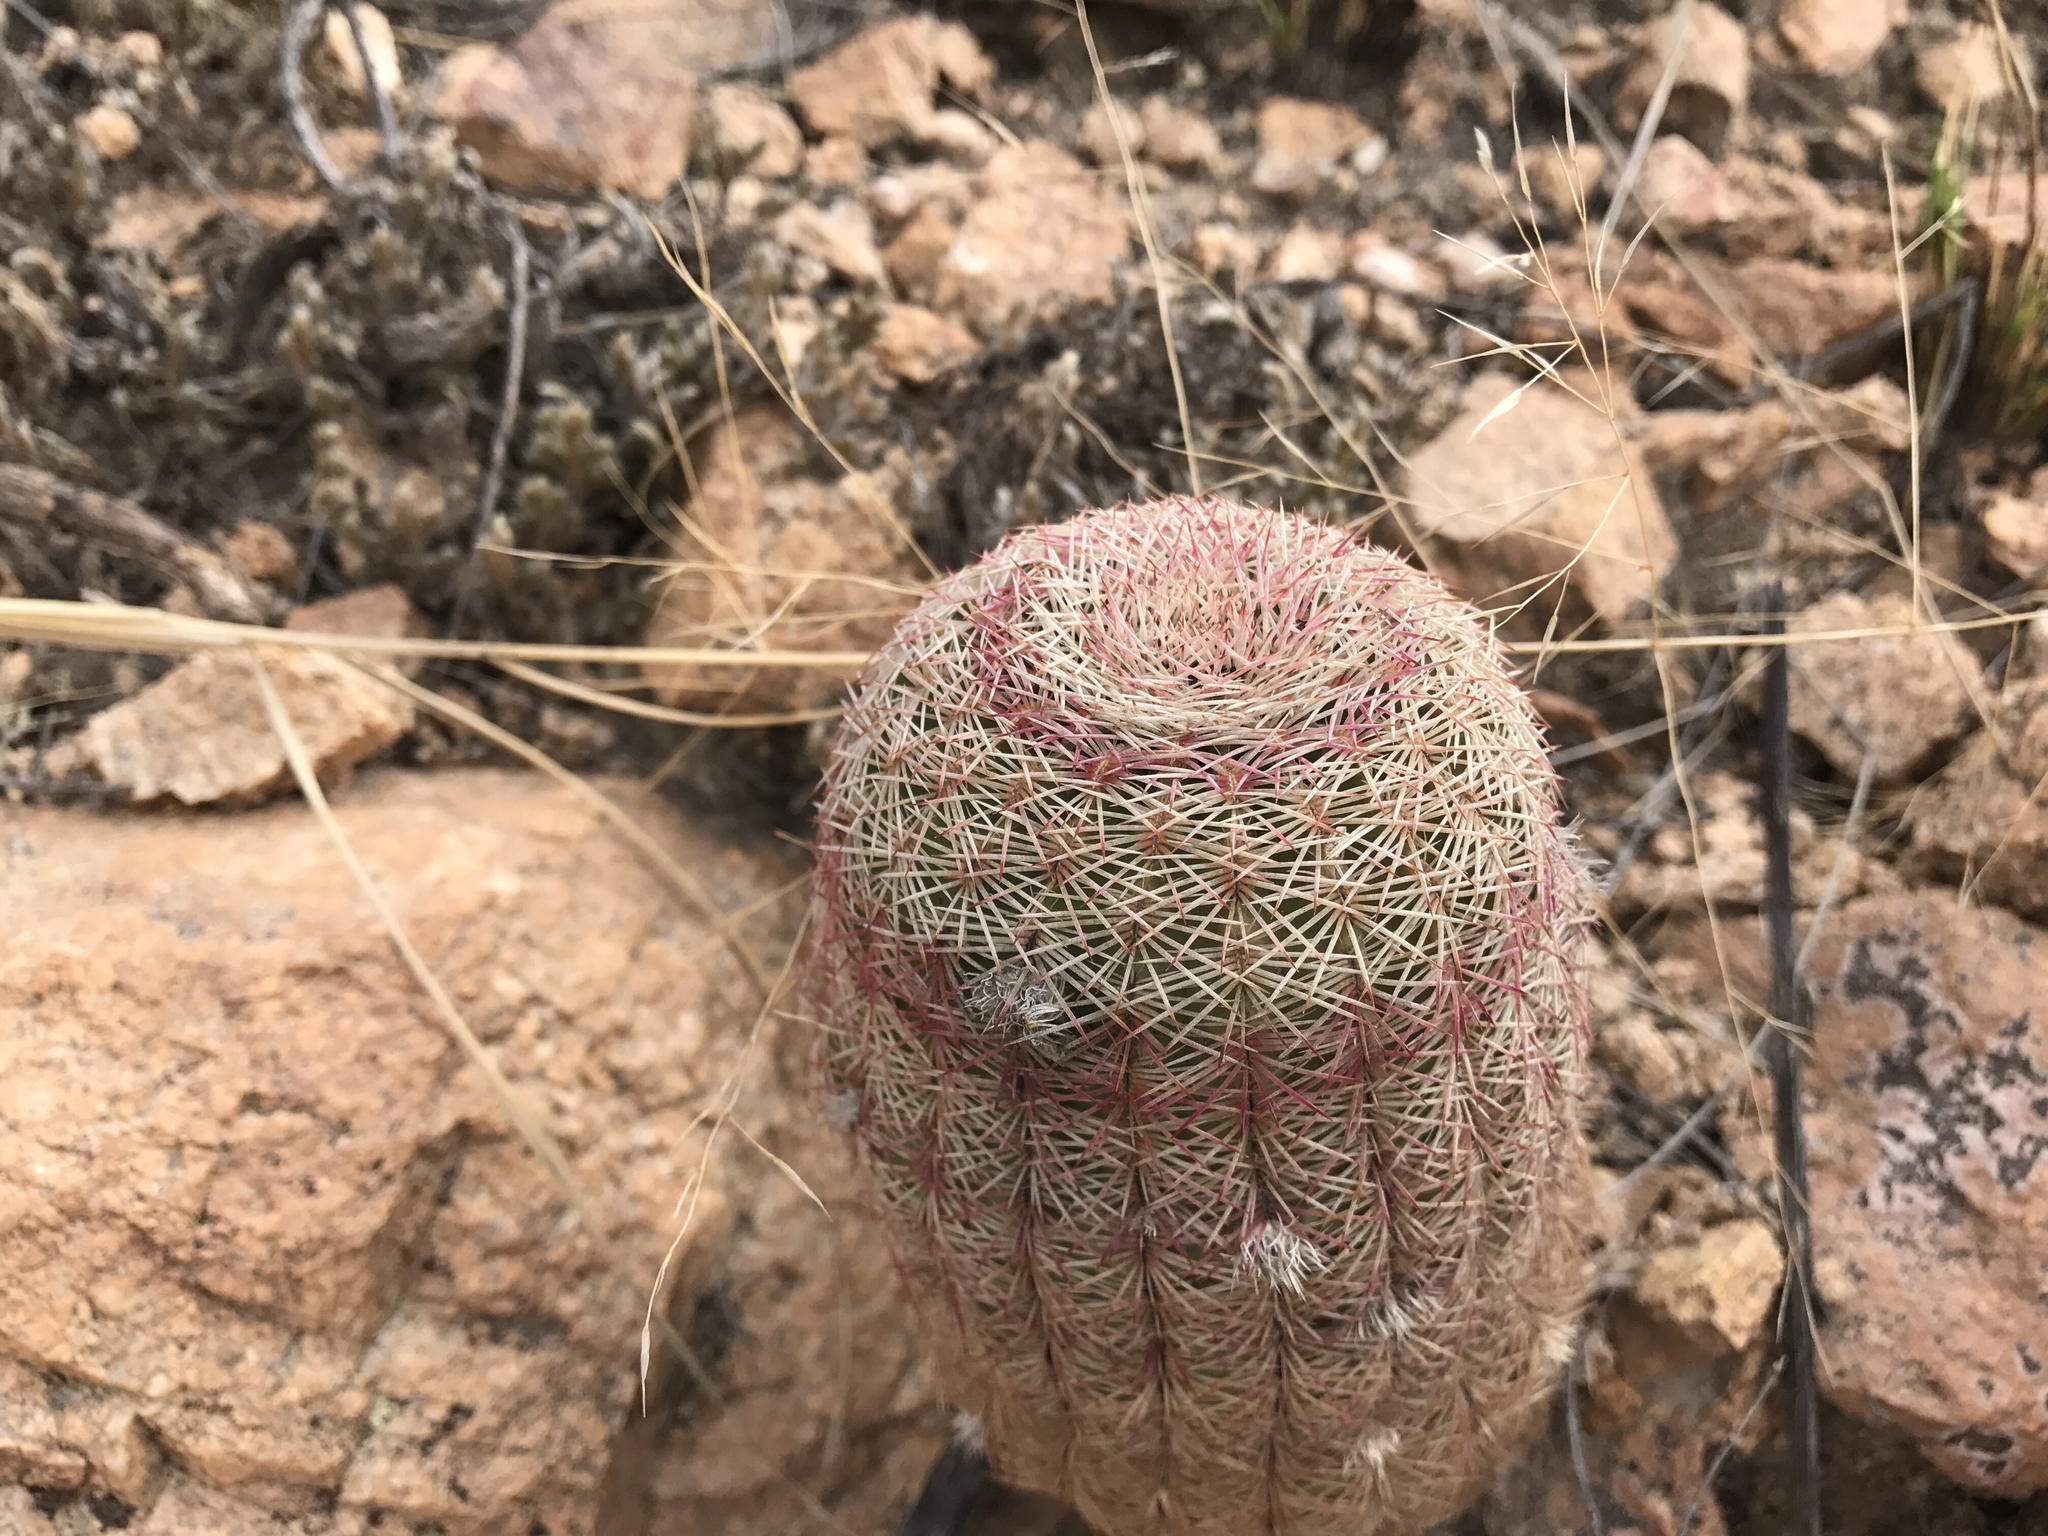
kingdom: Plantae
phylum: Tracheophyta
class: Magnoliopsida
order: Caryophyllales
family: Cactaceae
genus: Echinocereus
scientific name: Echinocereus rigidissimus
